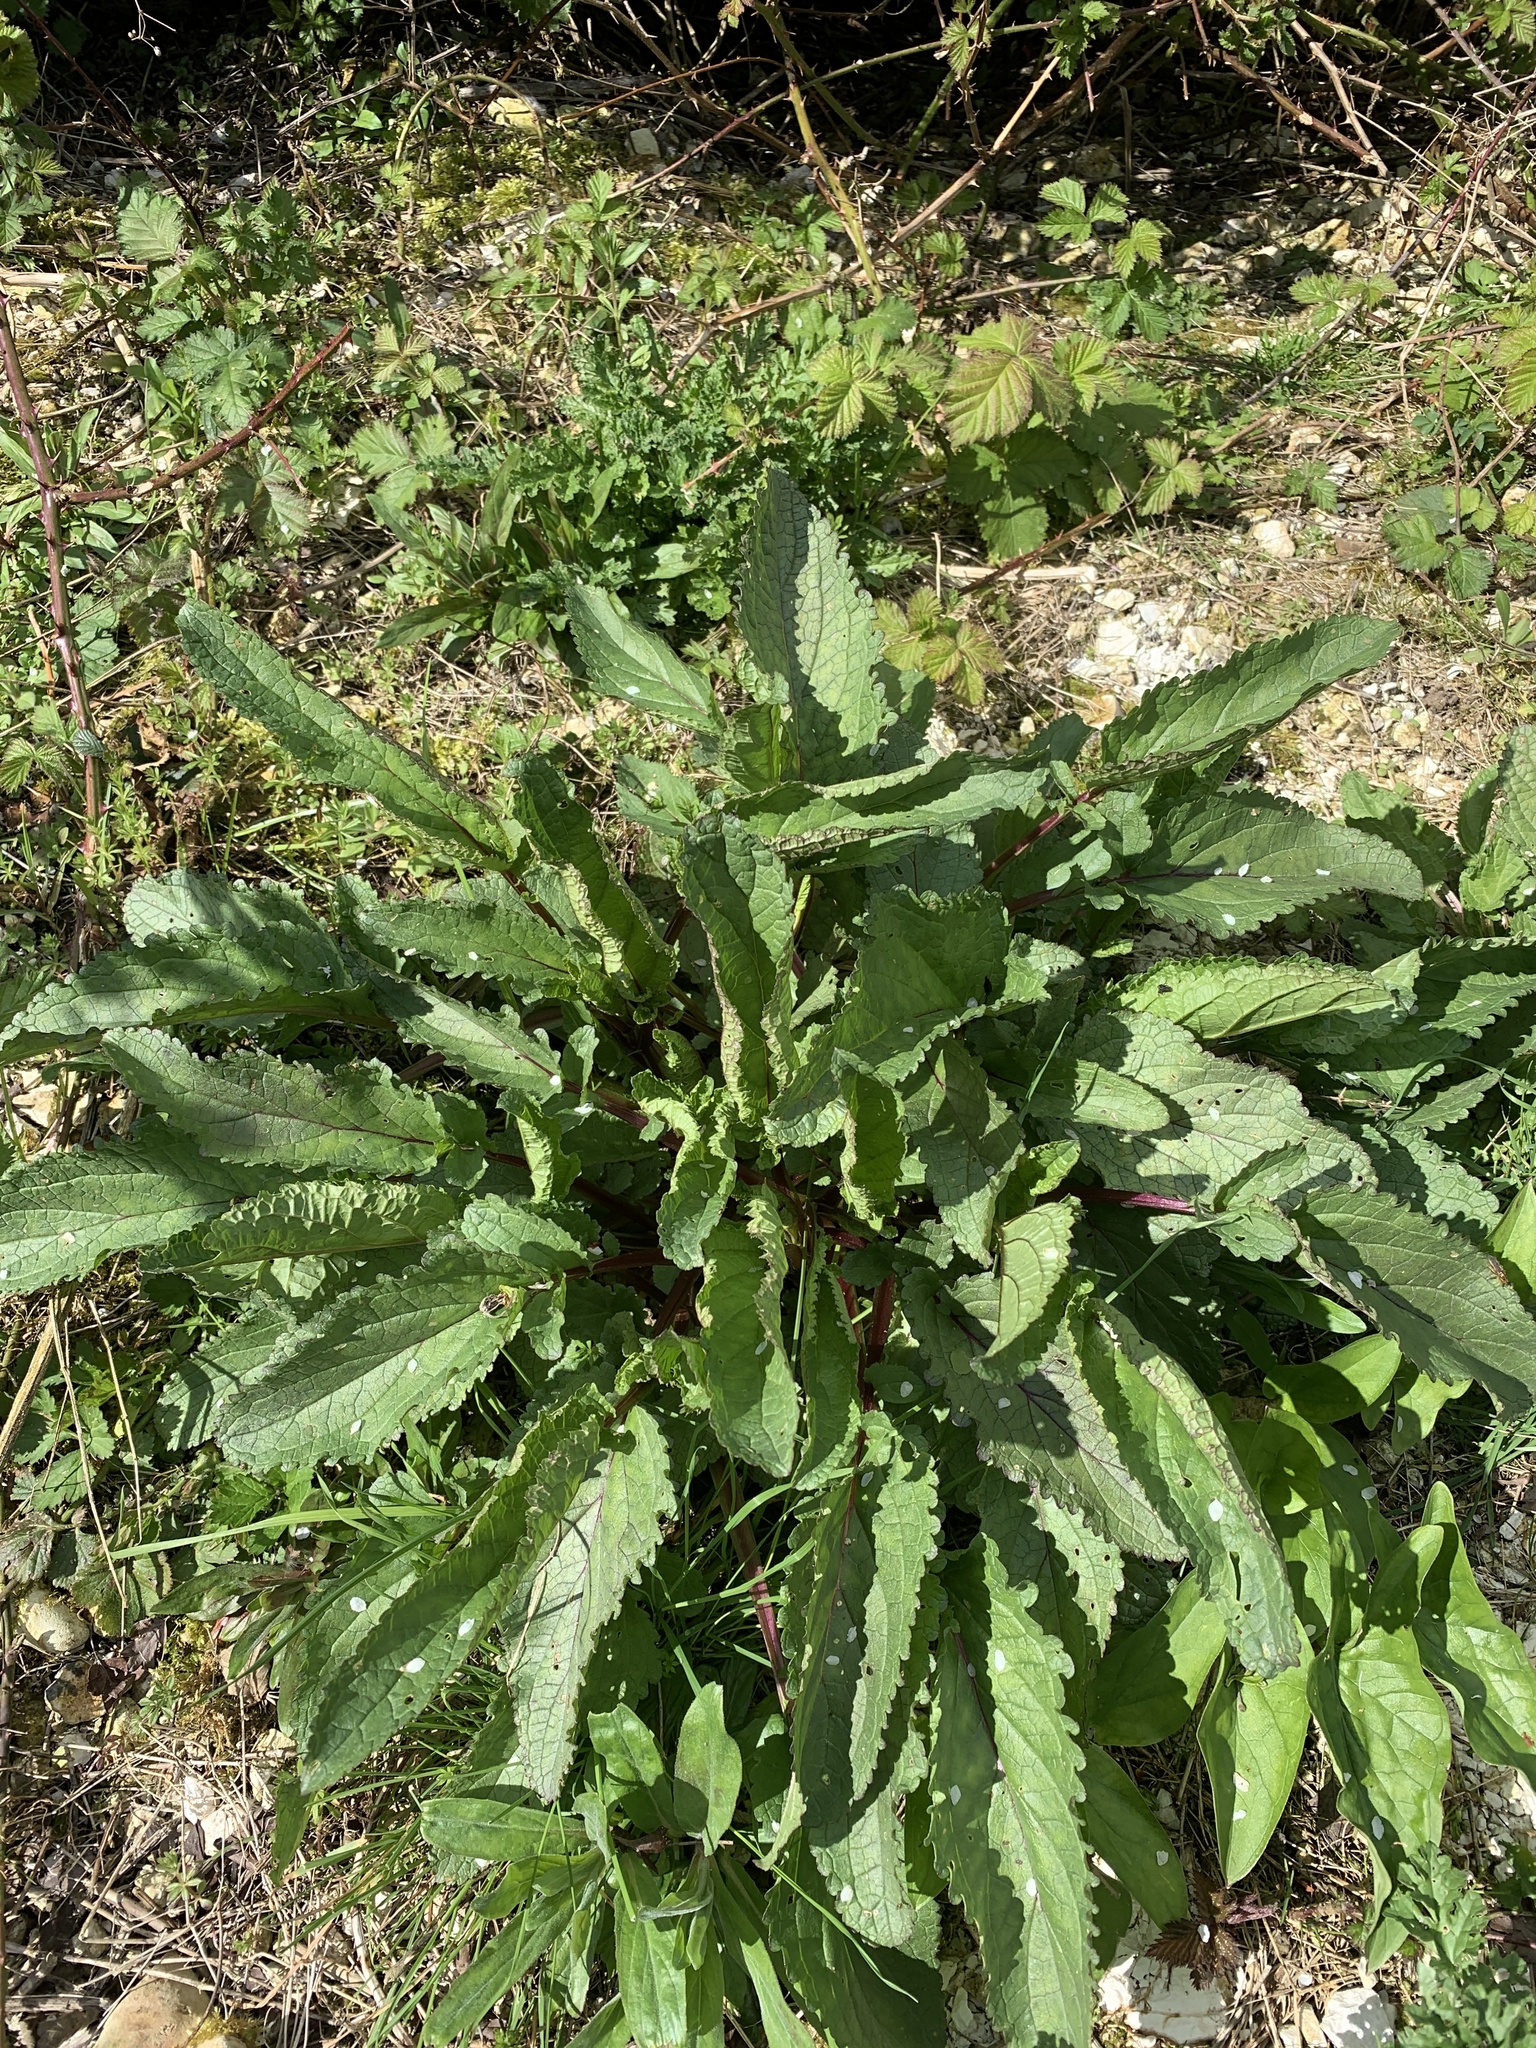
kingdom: Plantae
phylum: Tracheophyta
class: Magnoliopsida
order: Caryophyllales
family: Polygonaceae
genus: Rumex
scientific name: Rumex obtusifolius
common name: Bitter dock
